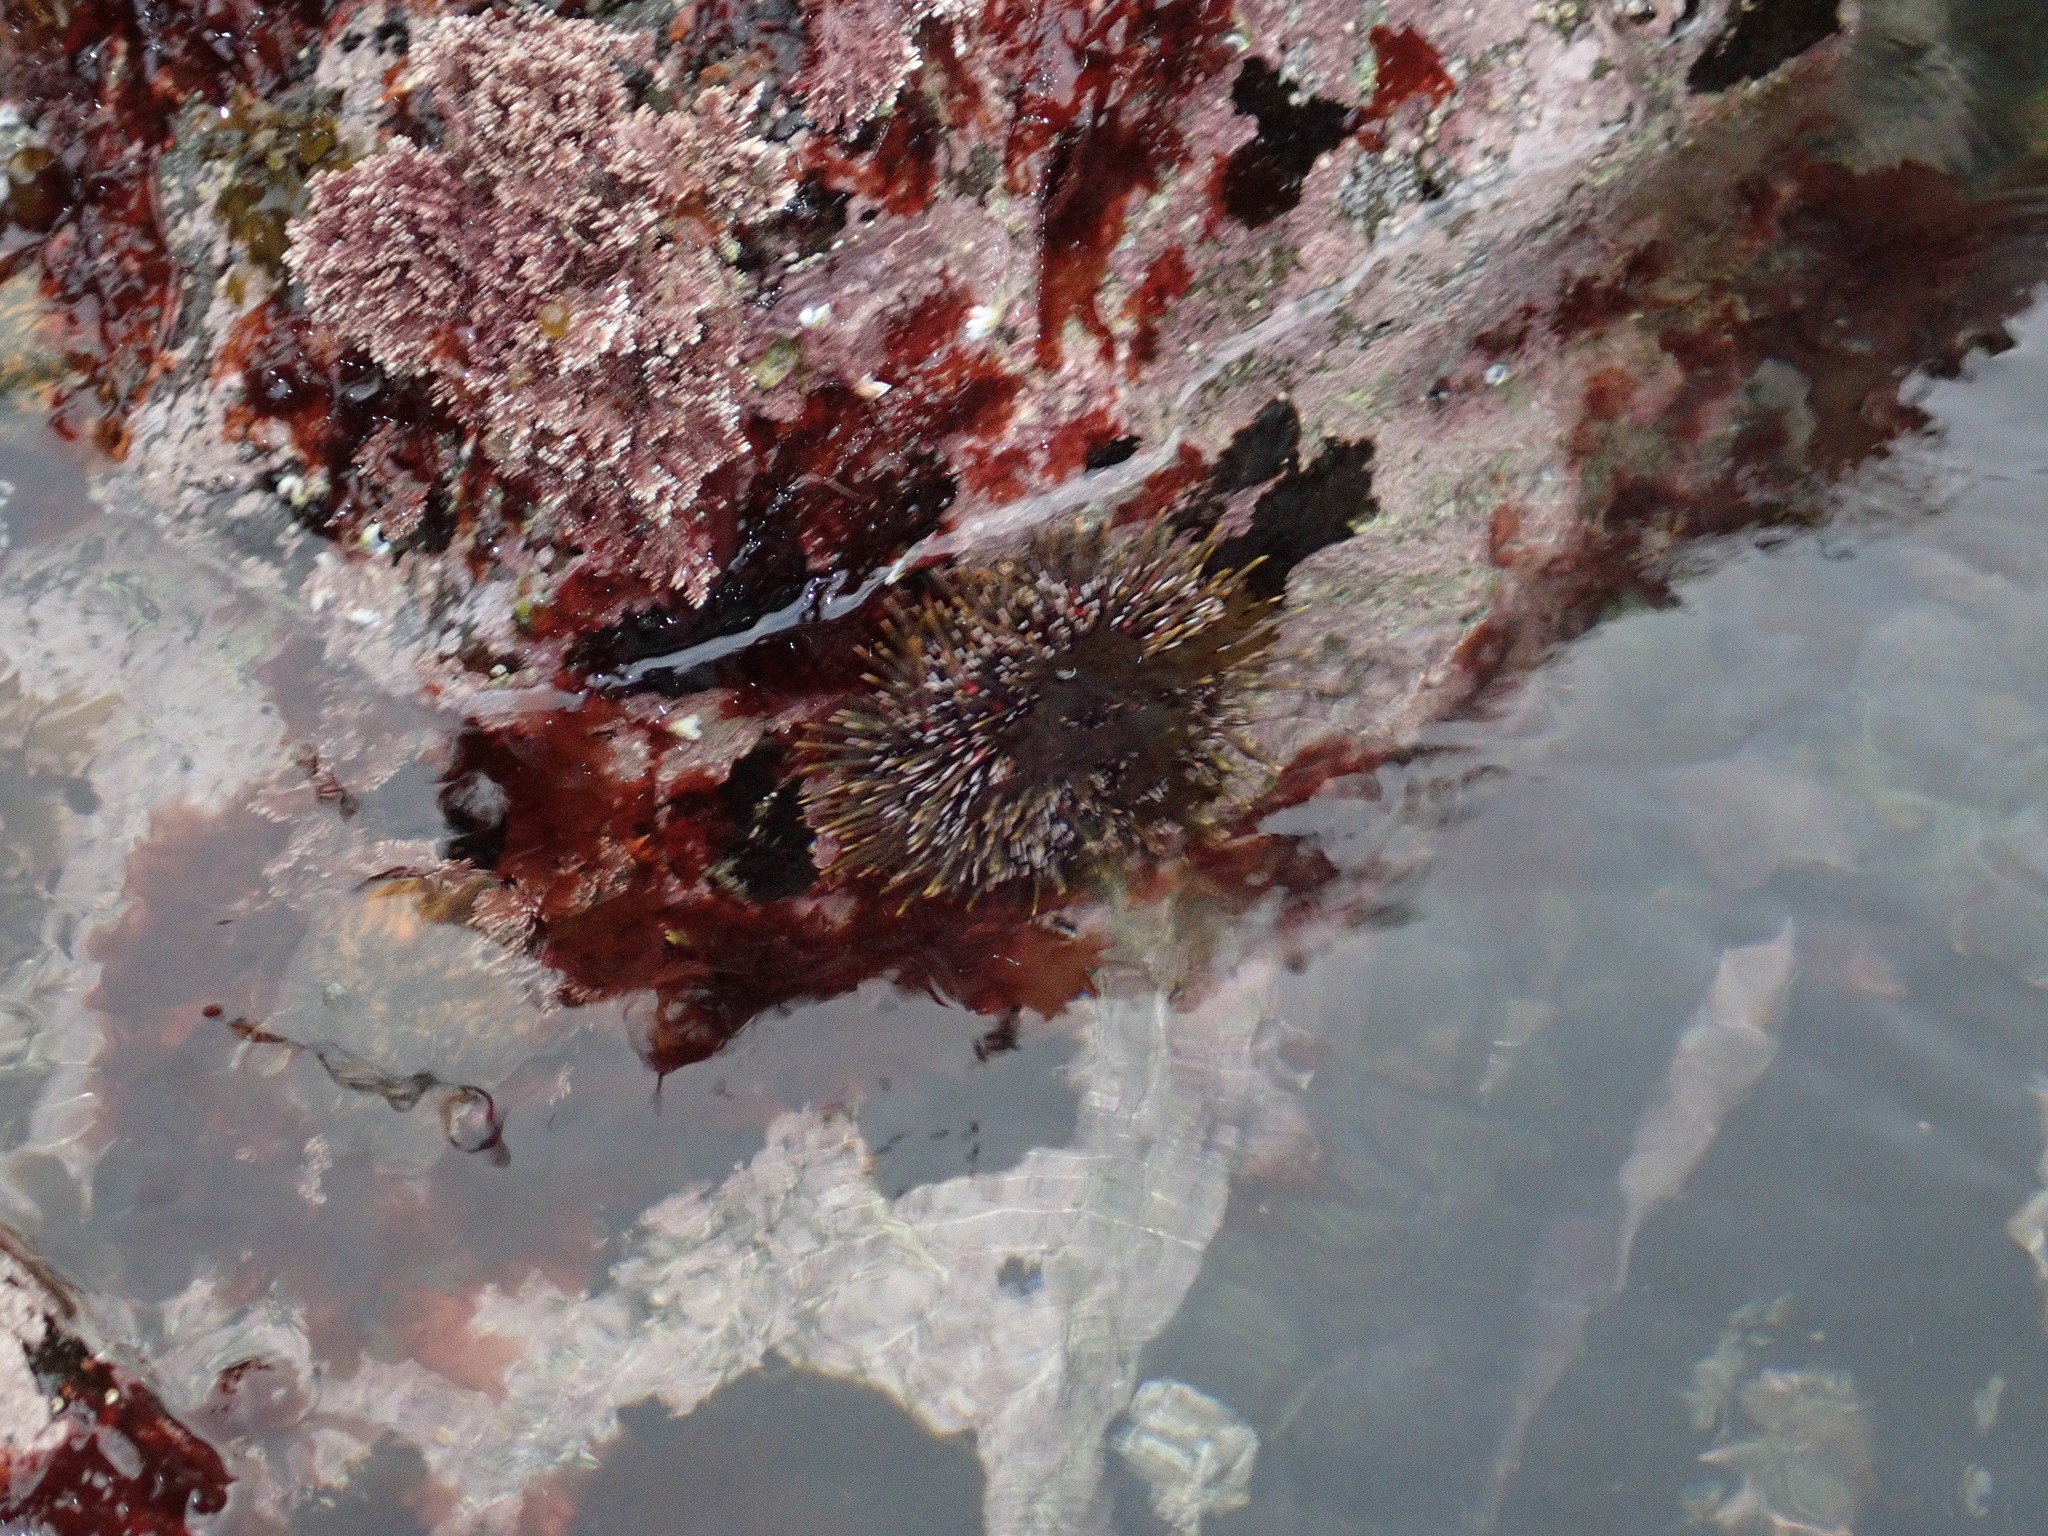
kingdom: Animalia
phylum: Echinodermata
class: Echinoidea
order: Camarodonta
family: Echinometridae
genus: Evechinus
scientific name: Evechinus chloroticus
